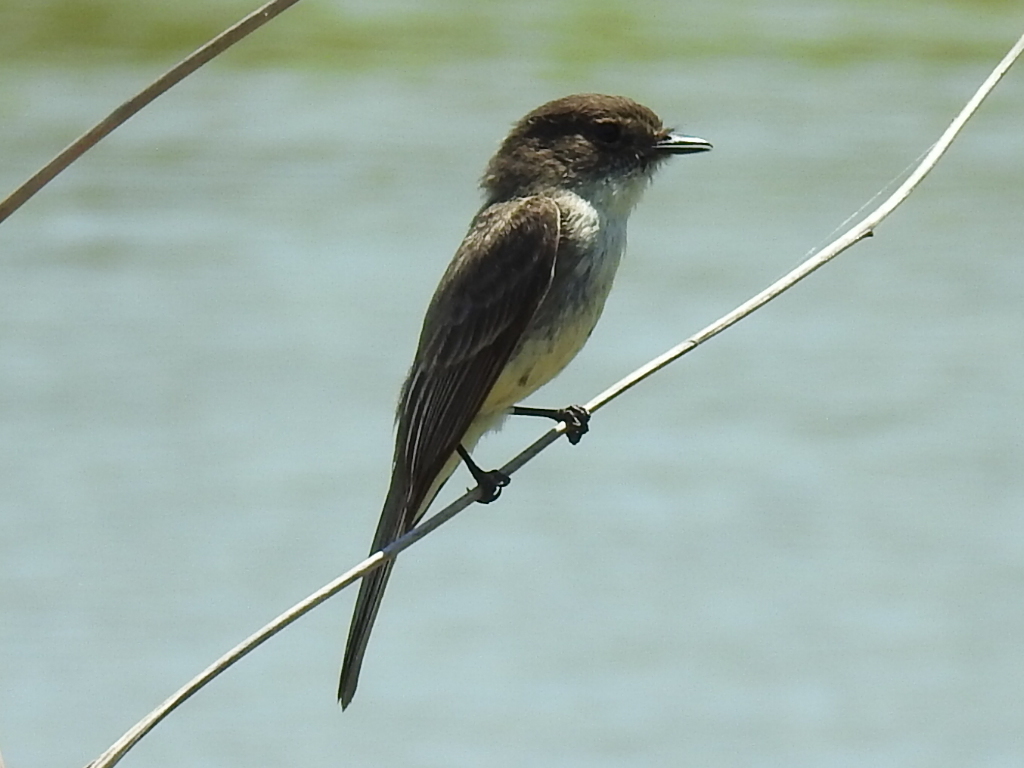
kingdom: Animalia
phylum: Chordata
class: Aves
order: Passeriformes
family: Tyrannidae
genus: Sayornis
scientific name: Sayornis phoebe
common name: Eastern phoebe
